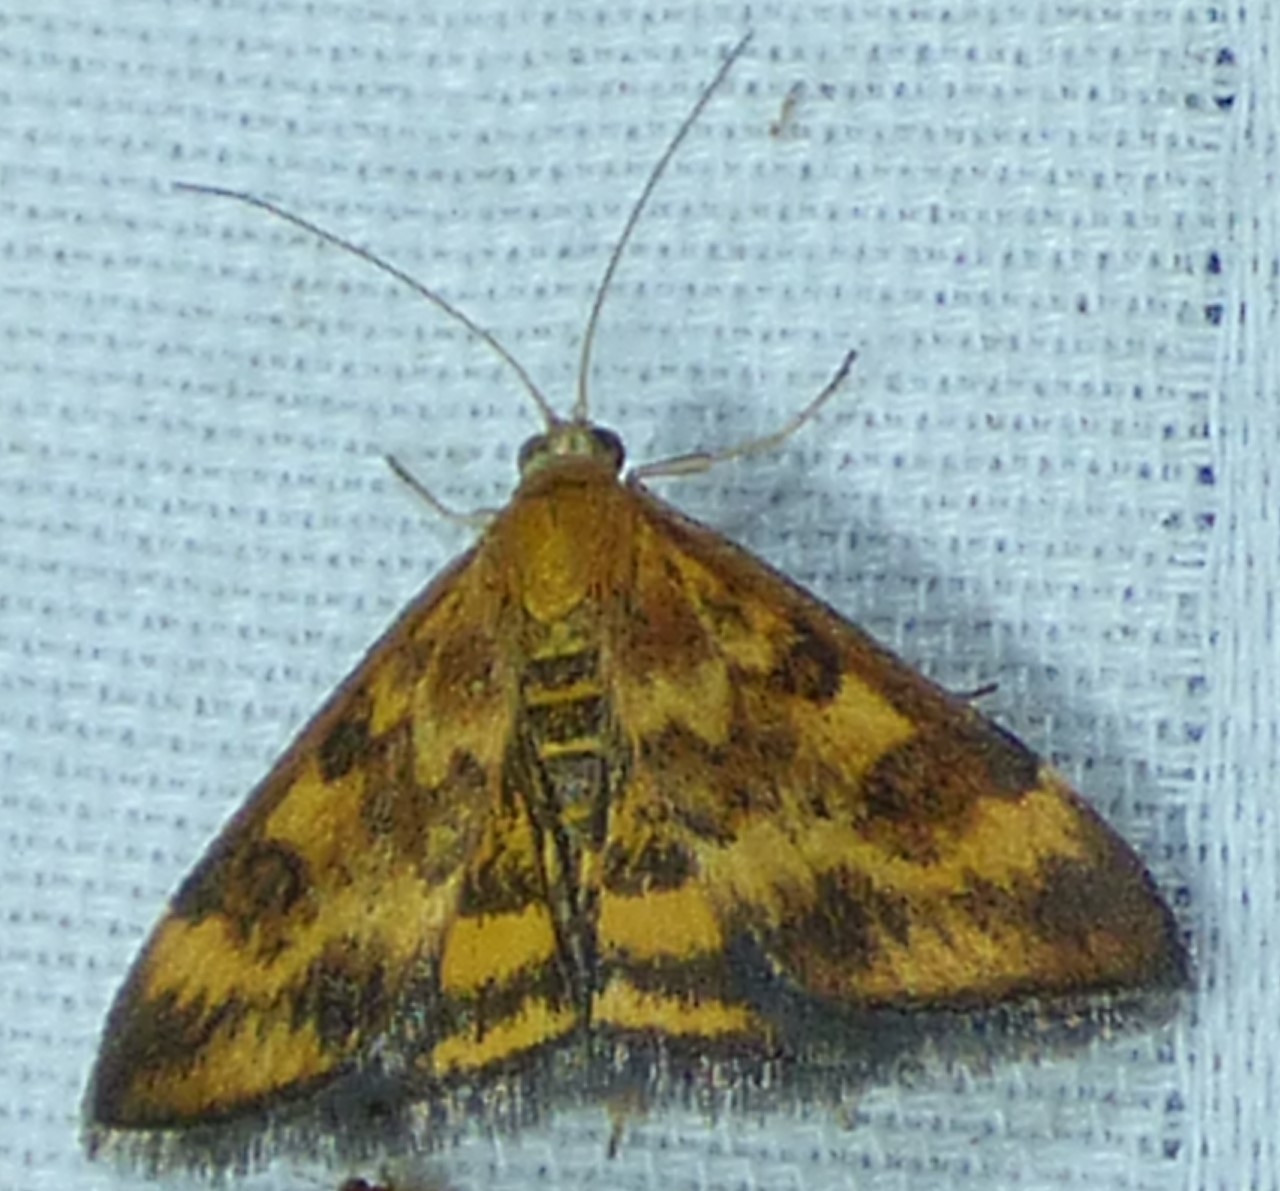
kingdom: Animalia
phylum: Arthropoda
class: Insecta
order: Lepidoptera
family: Crambidae
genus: Pyrausta
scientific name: Pyrausta subsequalis
